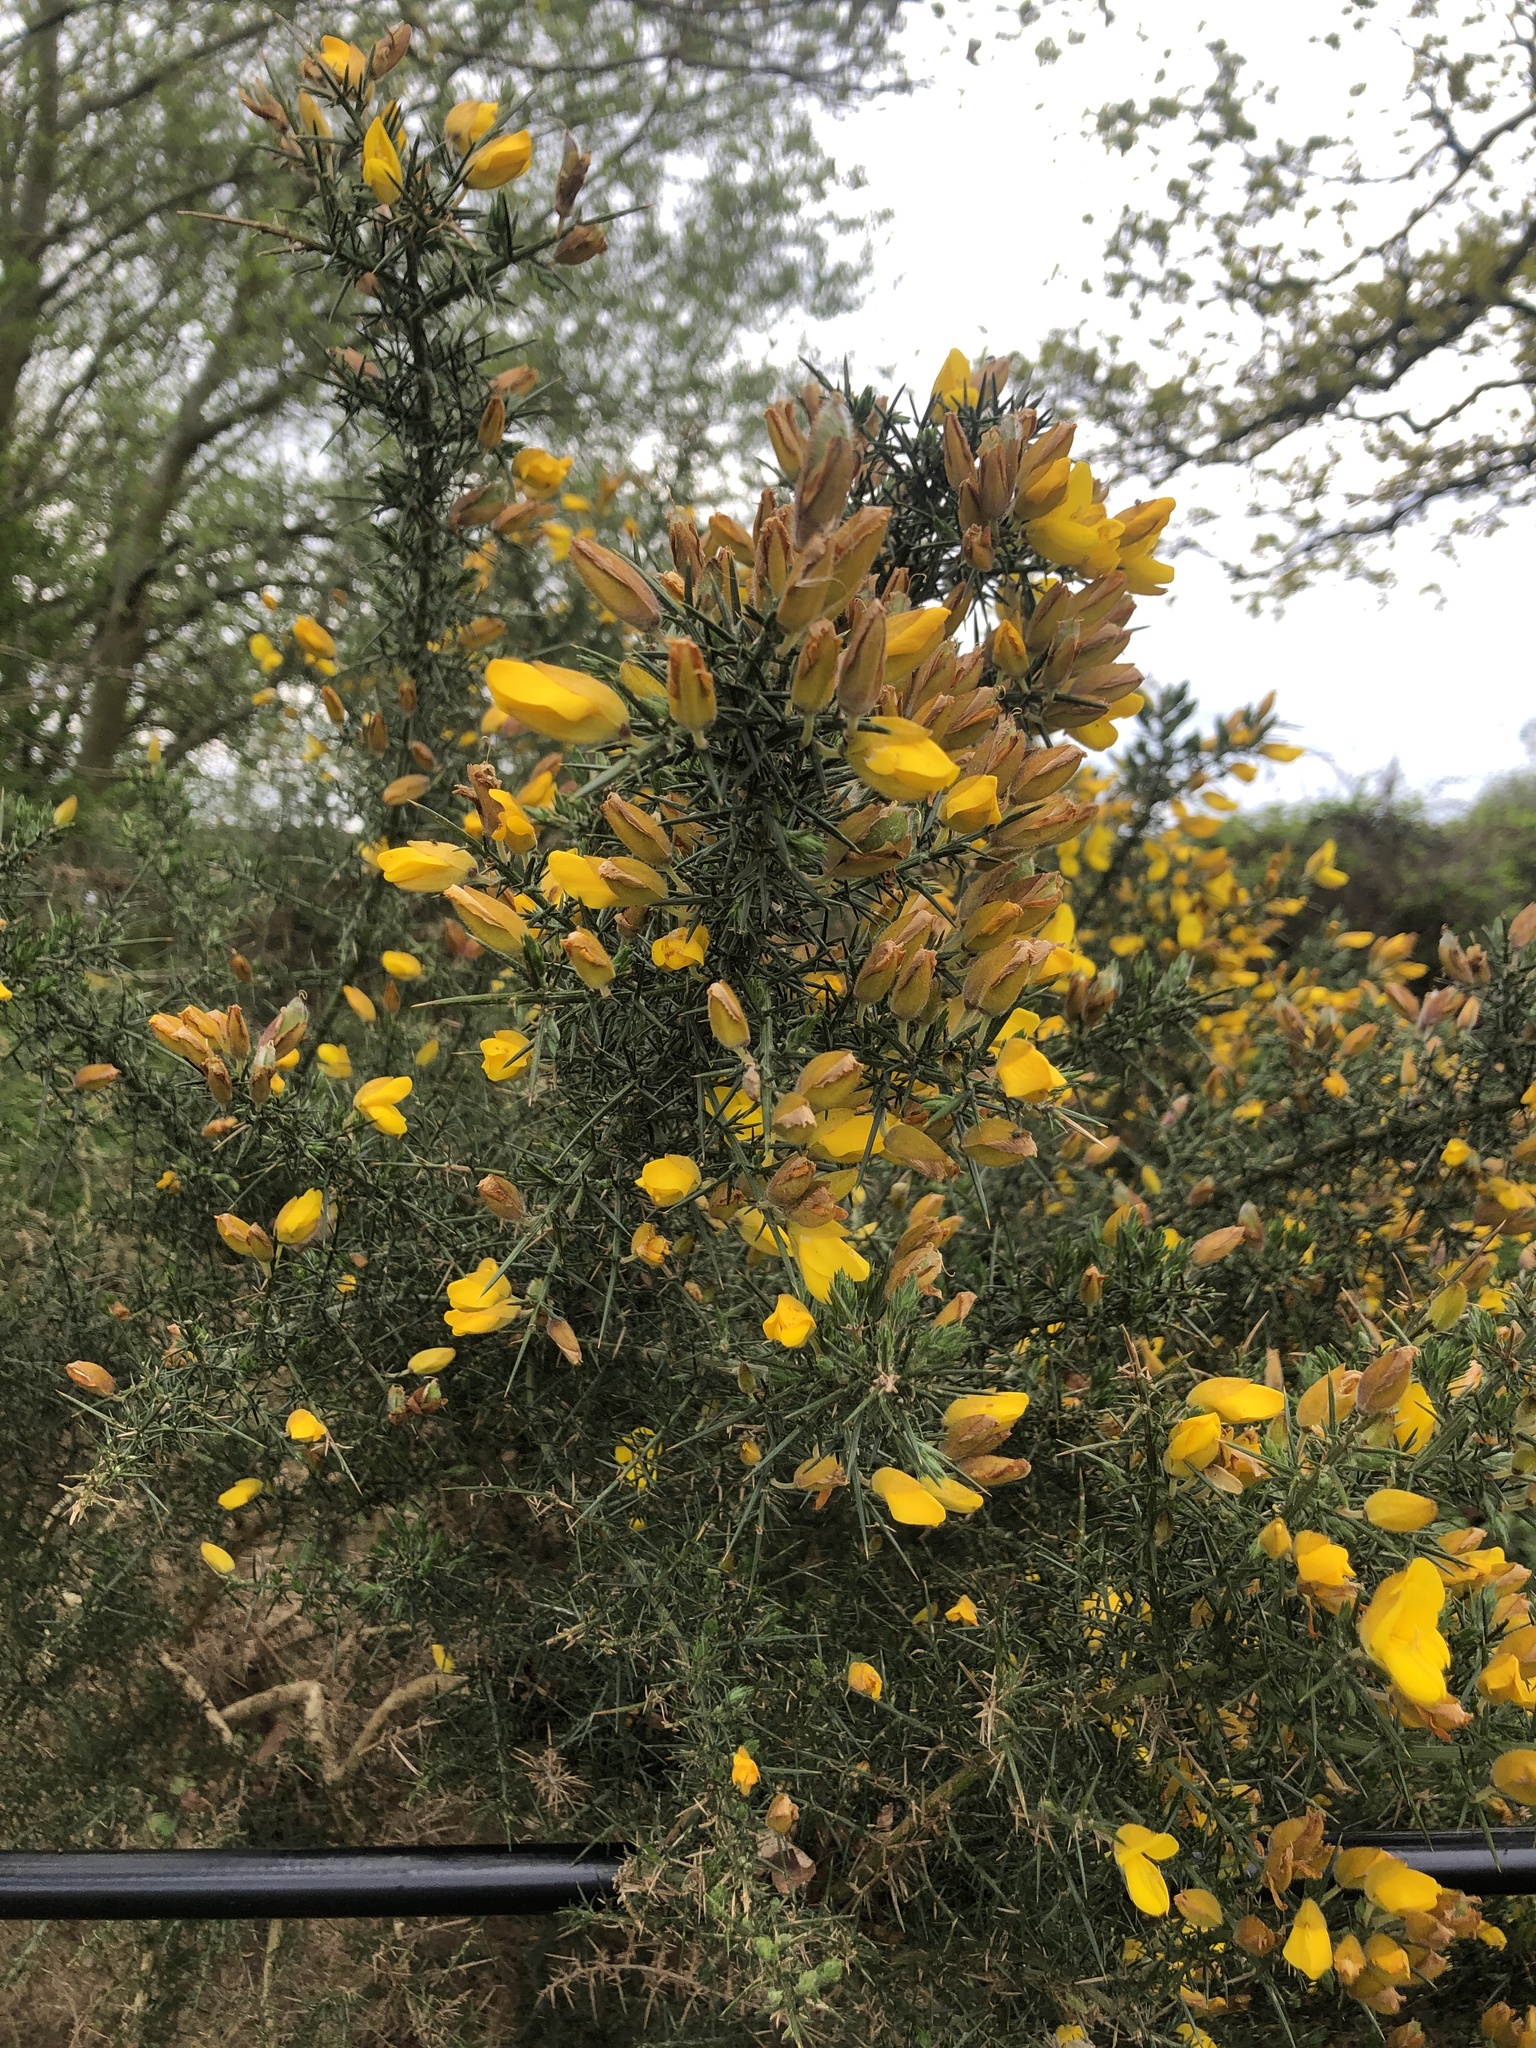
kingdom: Plantae
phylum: Tracheophyta
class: Magnoliopsida
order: Fabales
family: Fabaceae
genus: Ulex
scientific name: Ulex europaeus
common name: Common gorse
